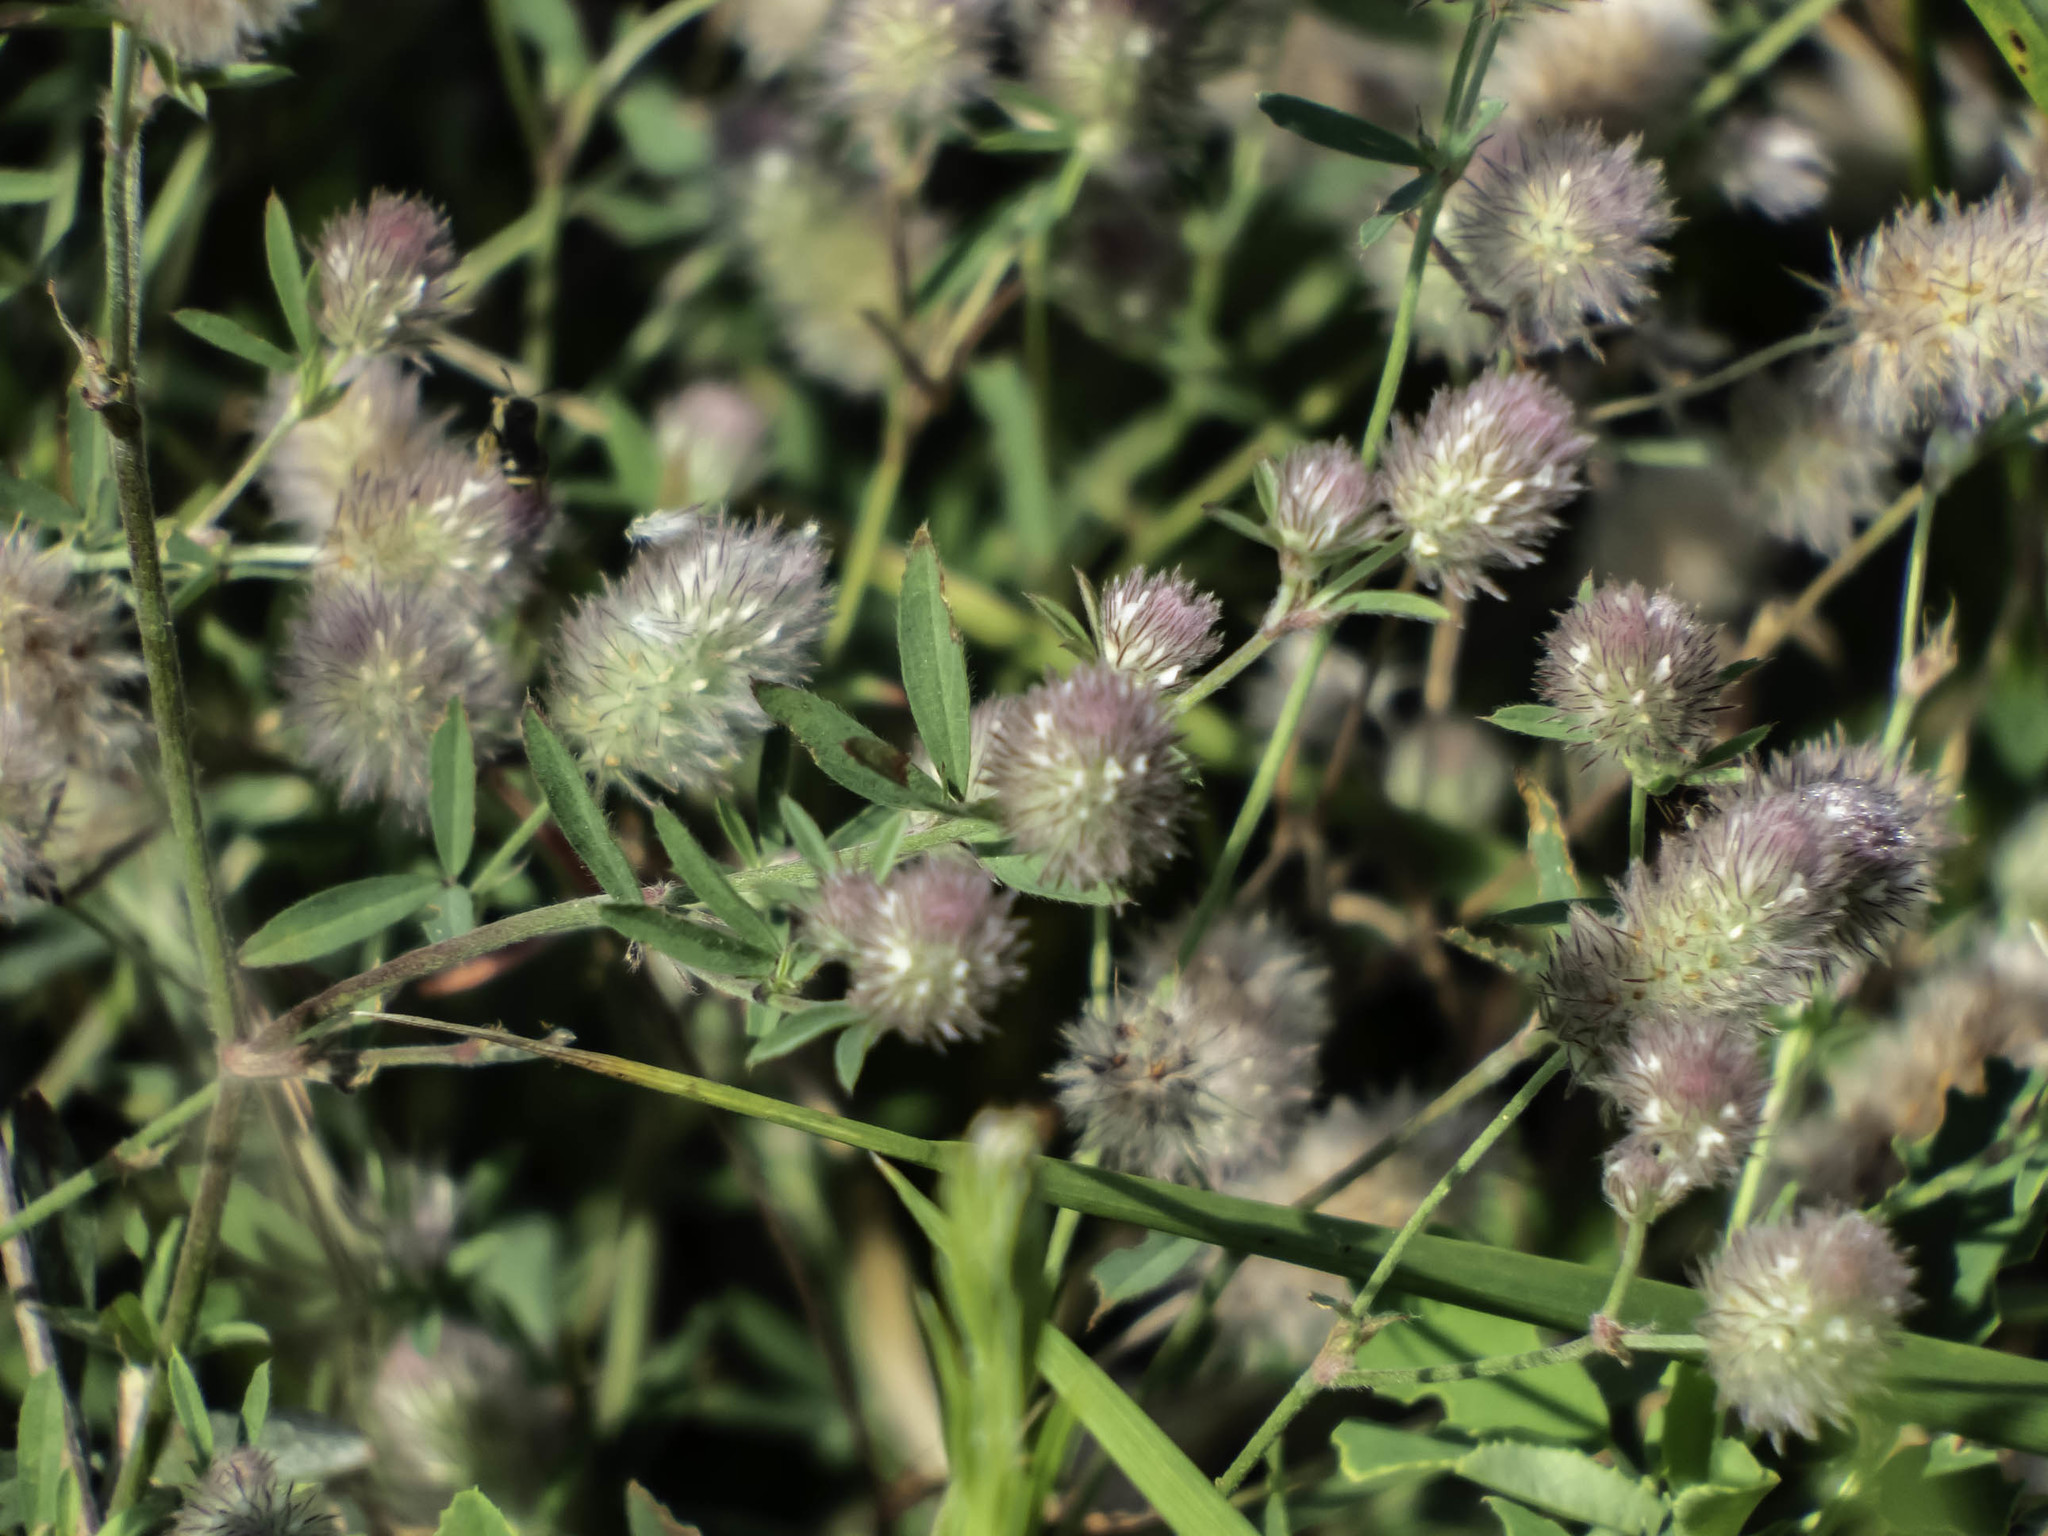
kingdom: Plantae
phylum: Tracheophyta
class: Magnoliopsida
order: Fabales
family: Fabaceae
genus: Trifolium
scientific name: Trifolium arvense
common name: Hare's-foot clover
